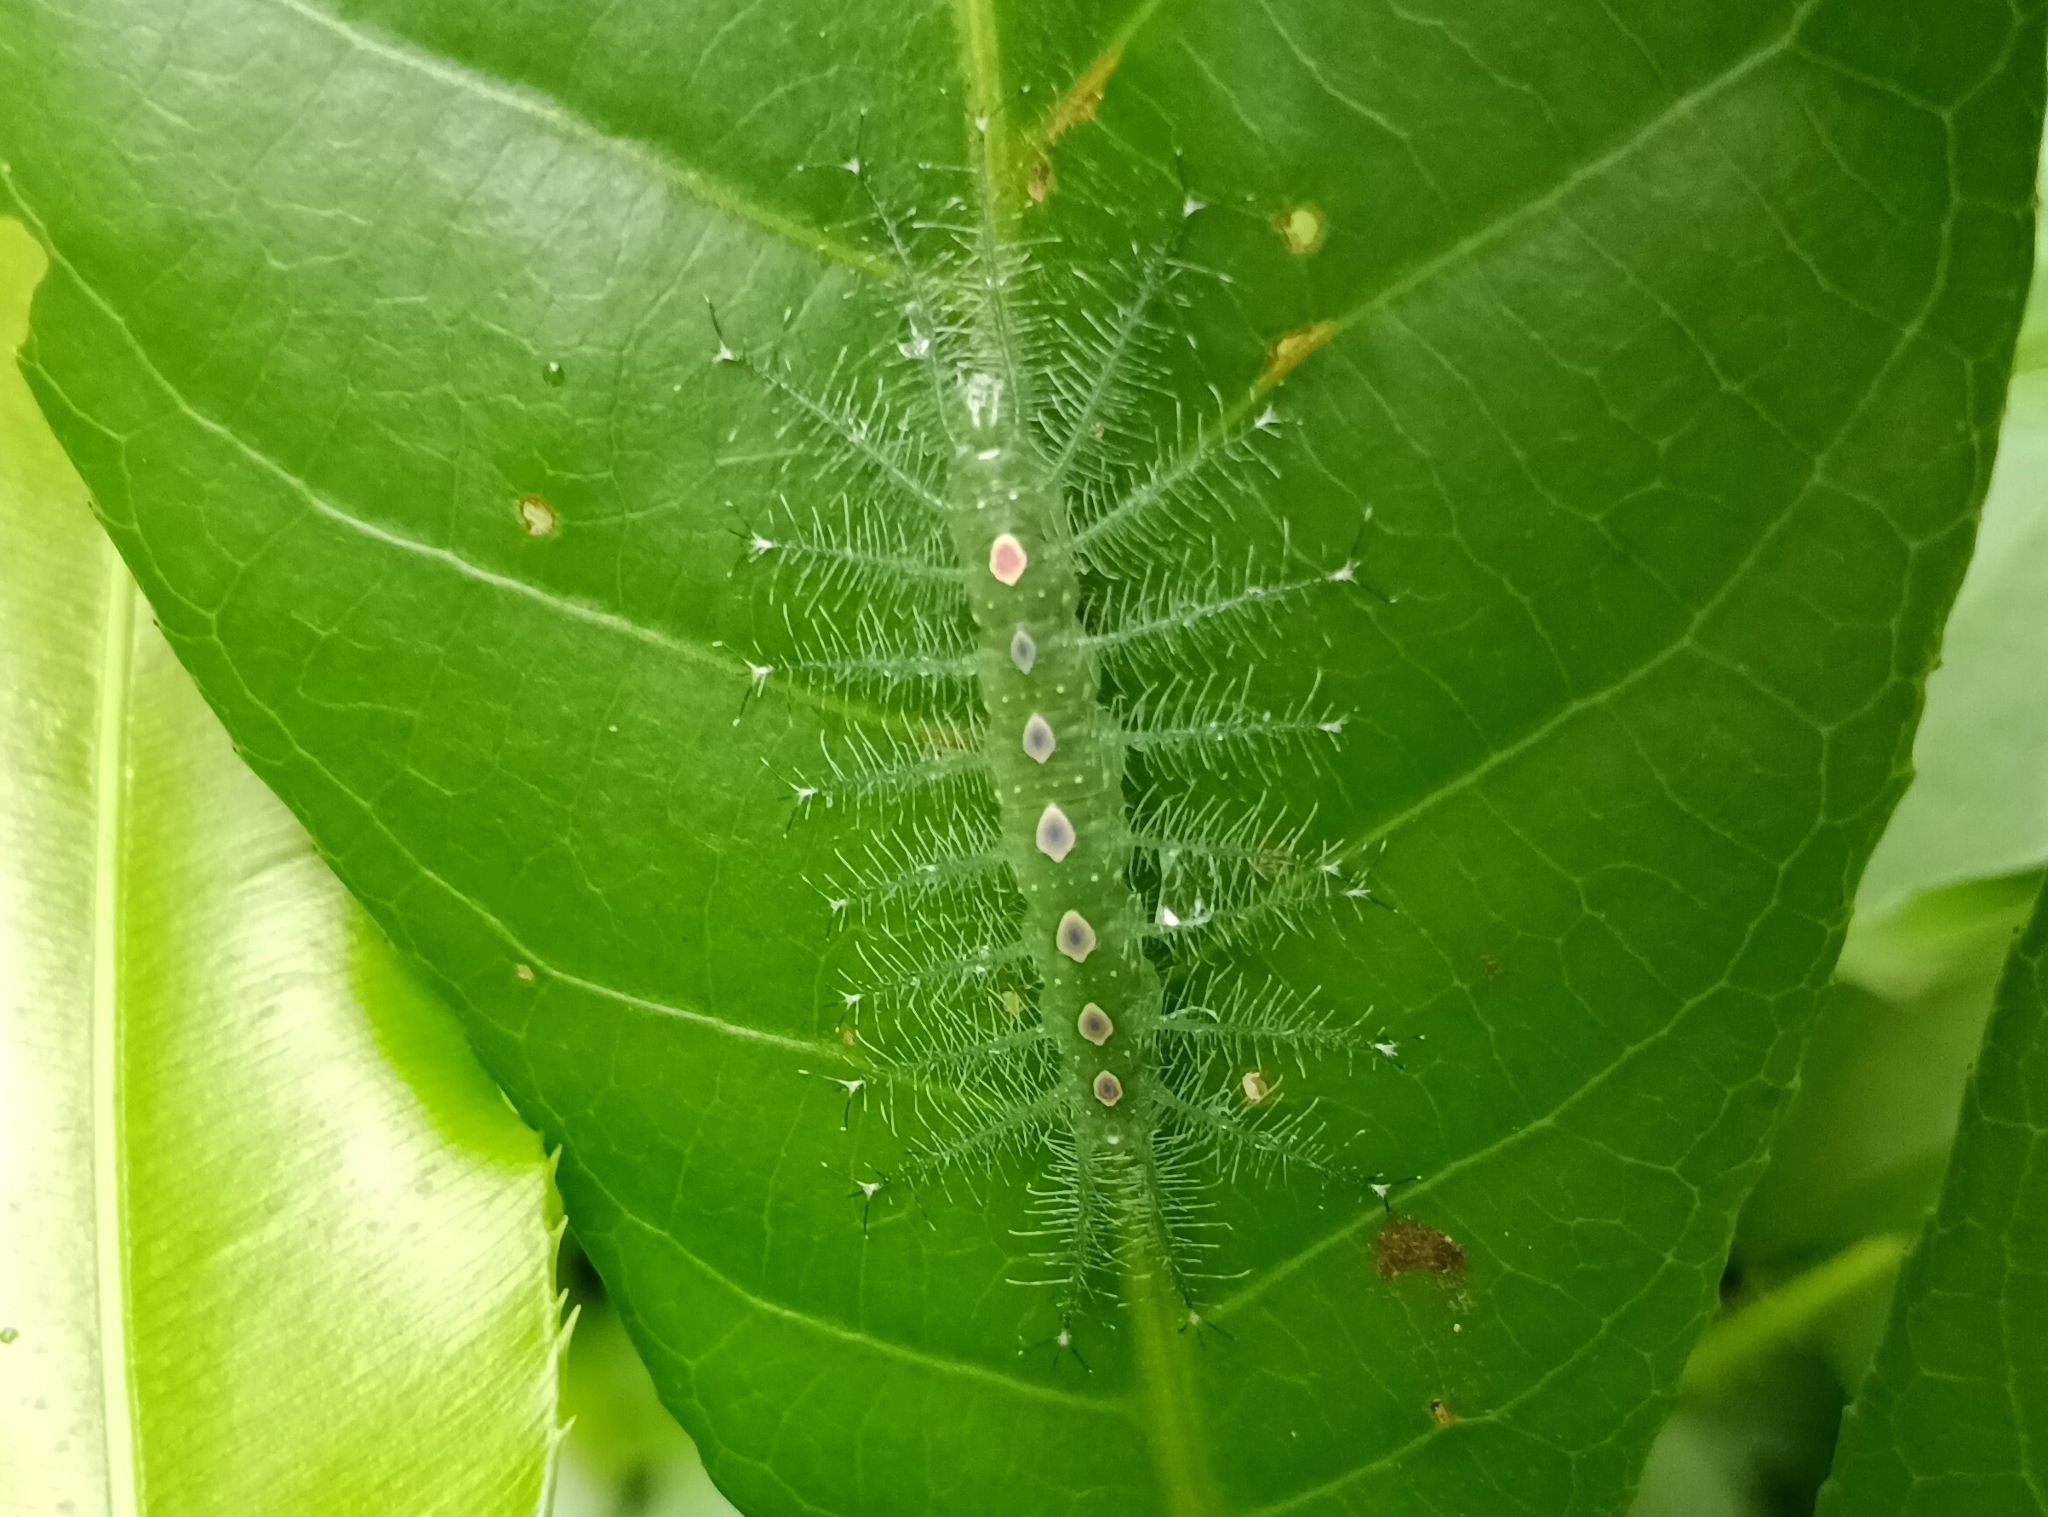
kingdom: Animalia
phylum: Arthropoda
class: Insecta
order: Lepidoptera
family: Nymphalidae
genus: Tanaecia
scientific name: Tanaecia lepidea
